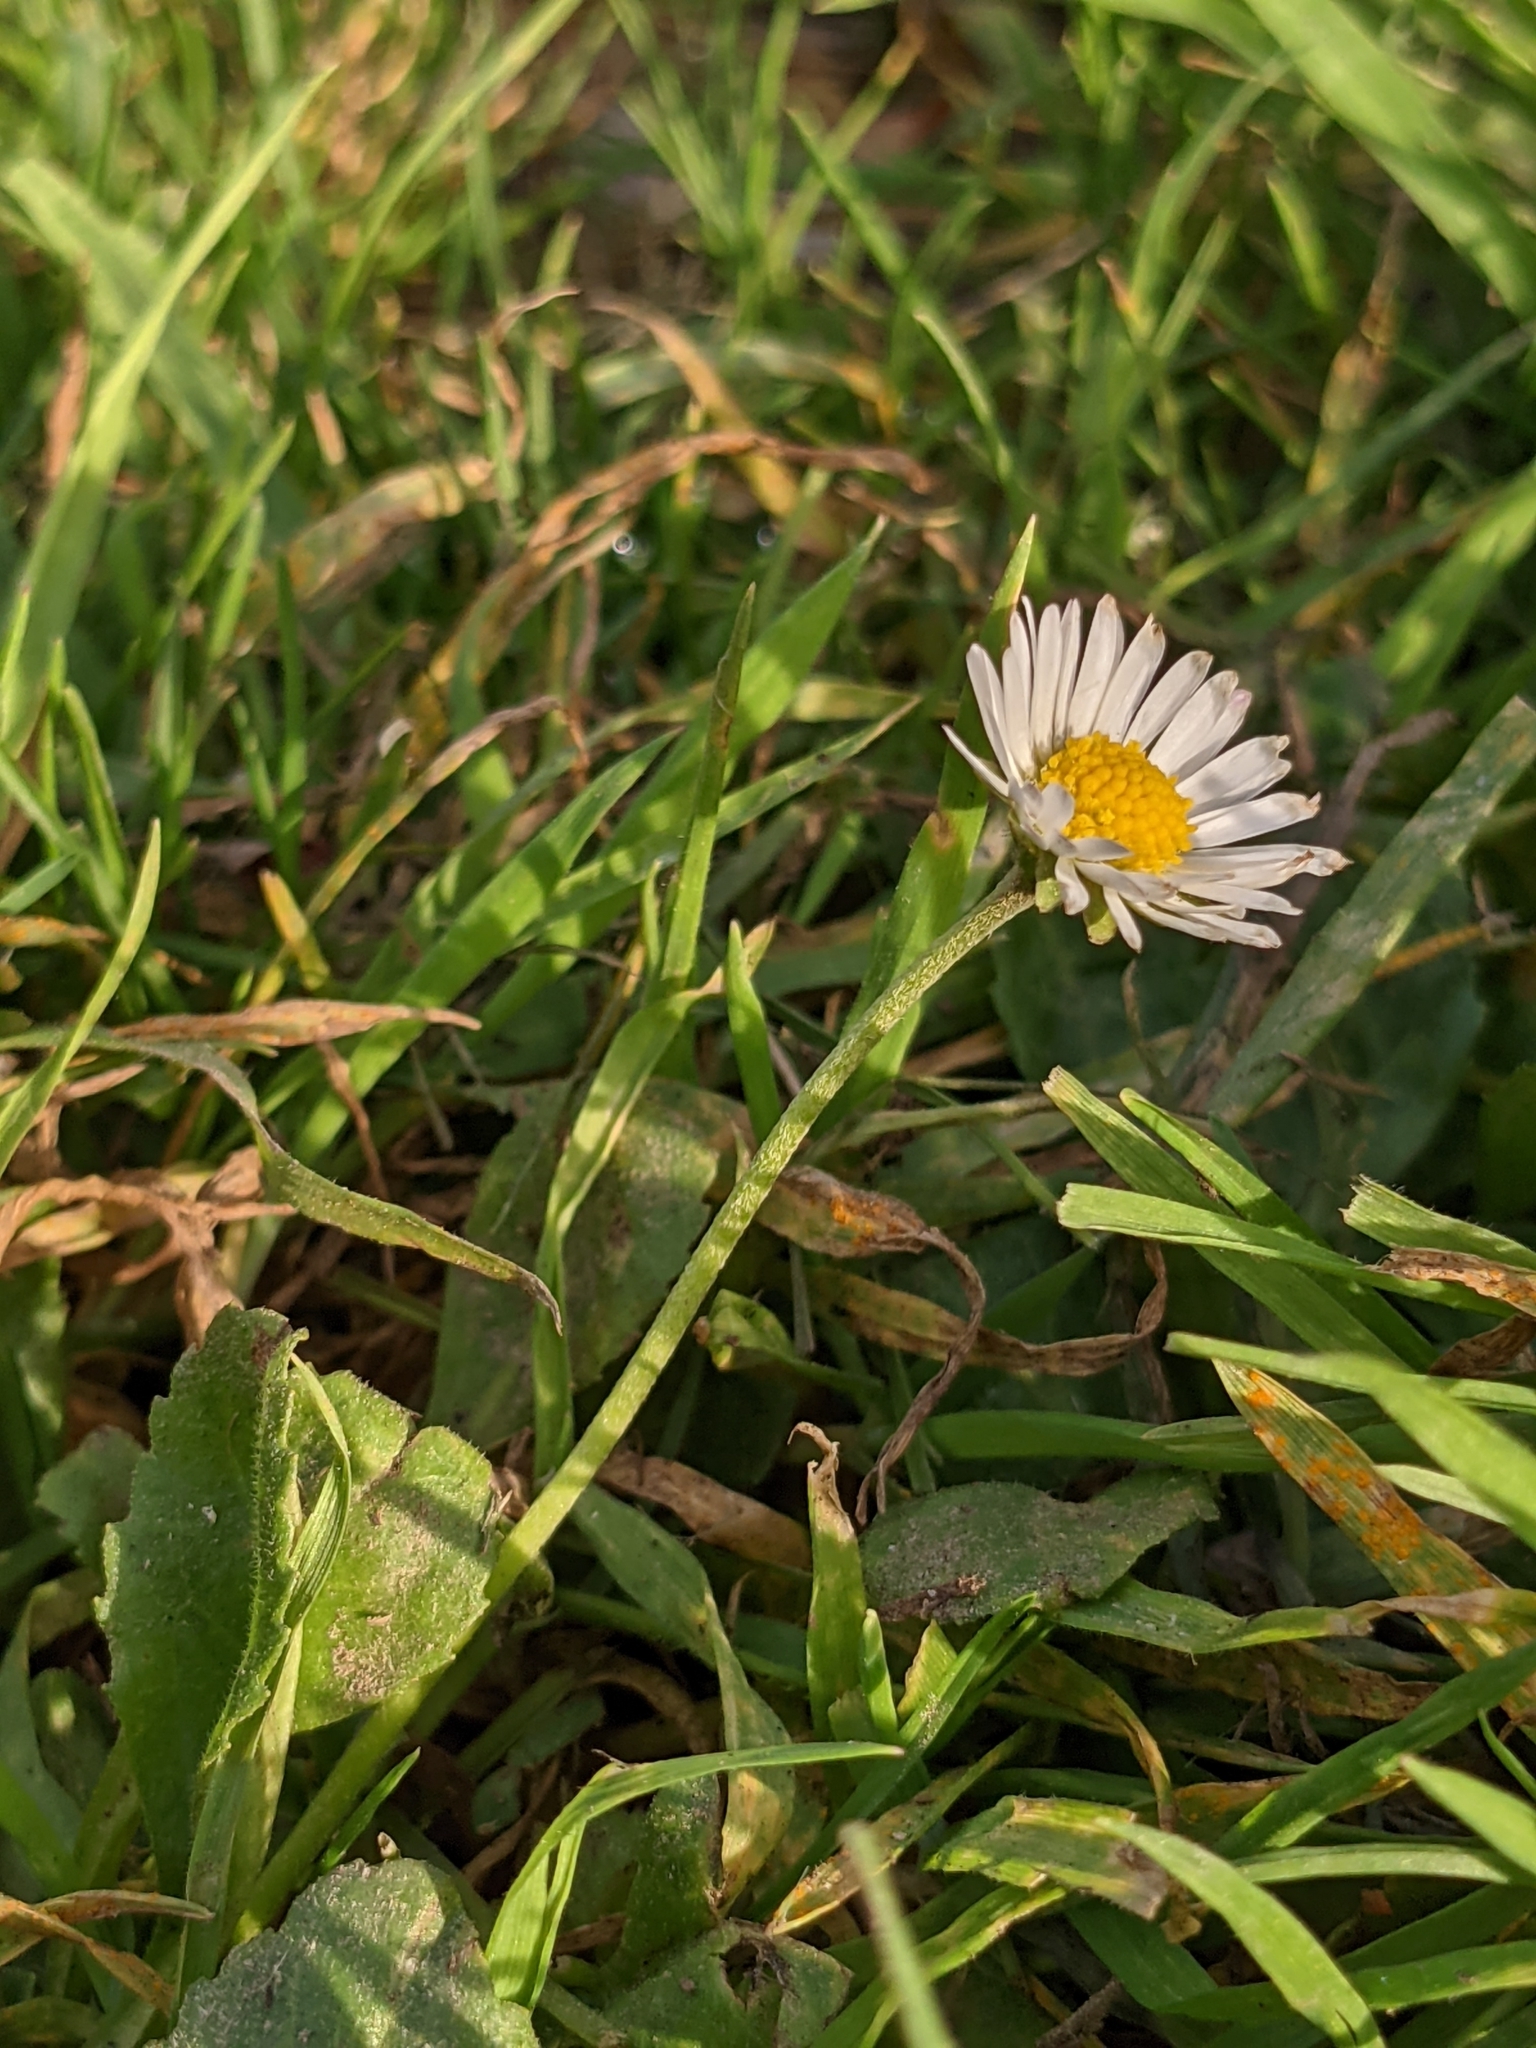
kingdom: Plantae
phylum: Tracheophyta
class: Magnoliopsida
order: Asterales
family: Asteraceae
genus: Bellis
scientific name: Bellis perennis
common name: Lawndaisy
